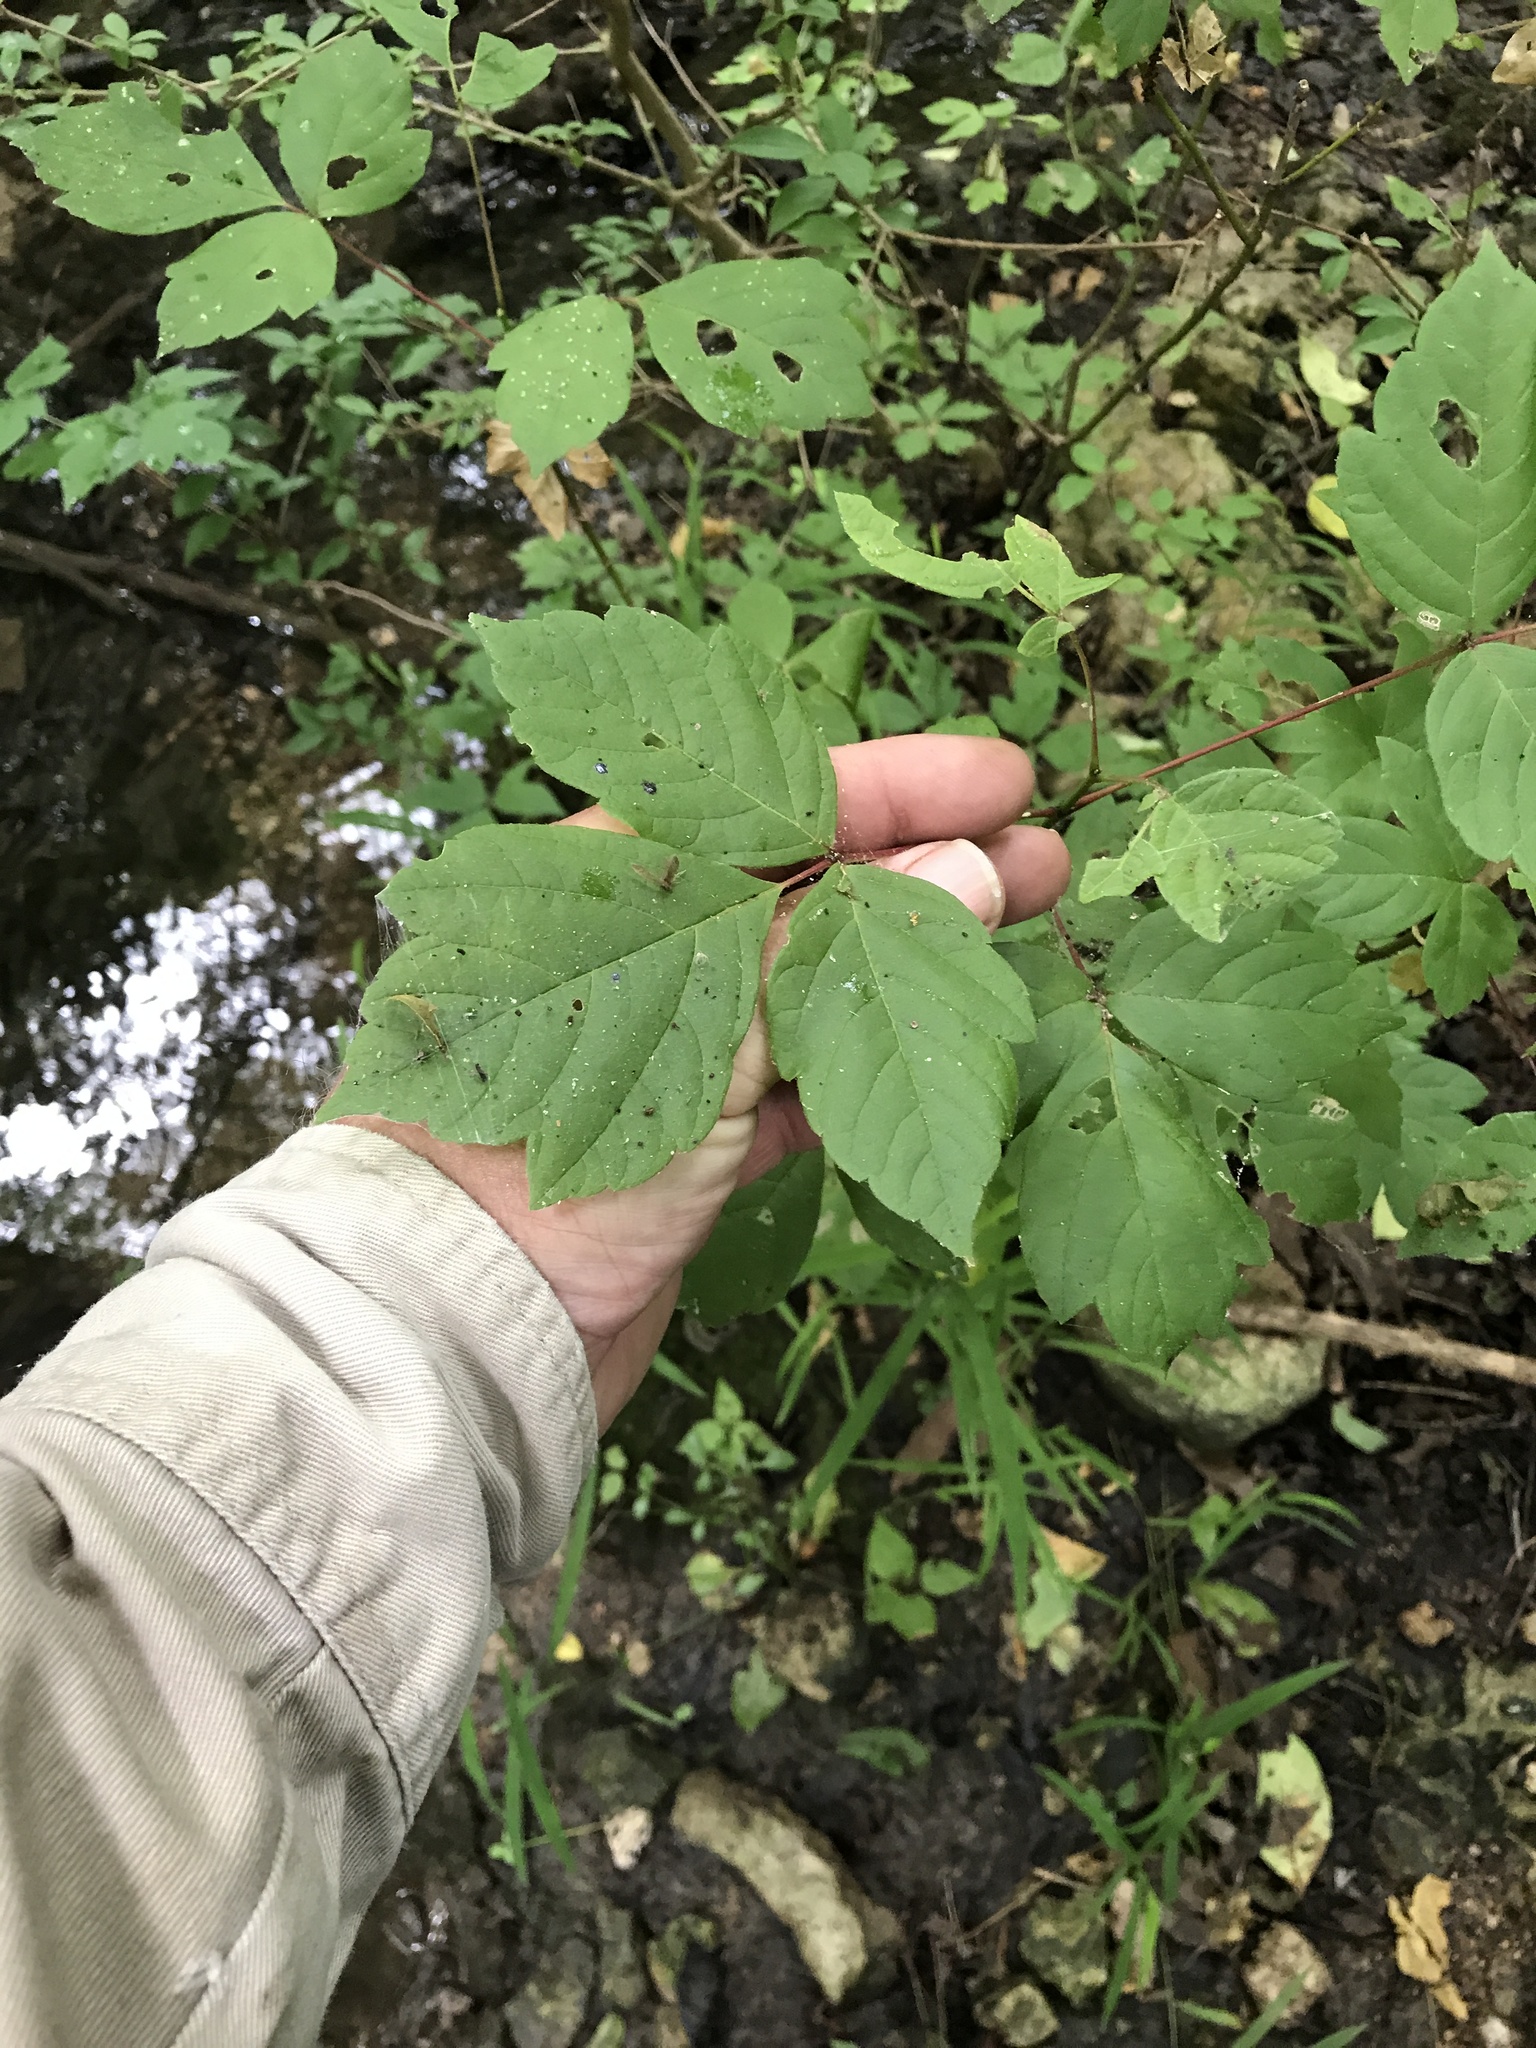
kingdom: Plantae
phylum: Tracheophyta
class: Magnoliopsida
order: Sapindales
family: Sapindaceae
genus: Acer
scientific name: Acer negundo
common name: Ashleaf maple
